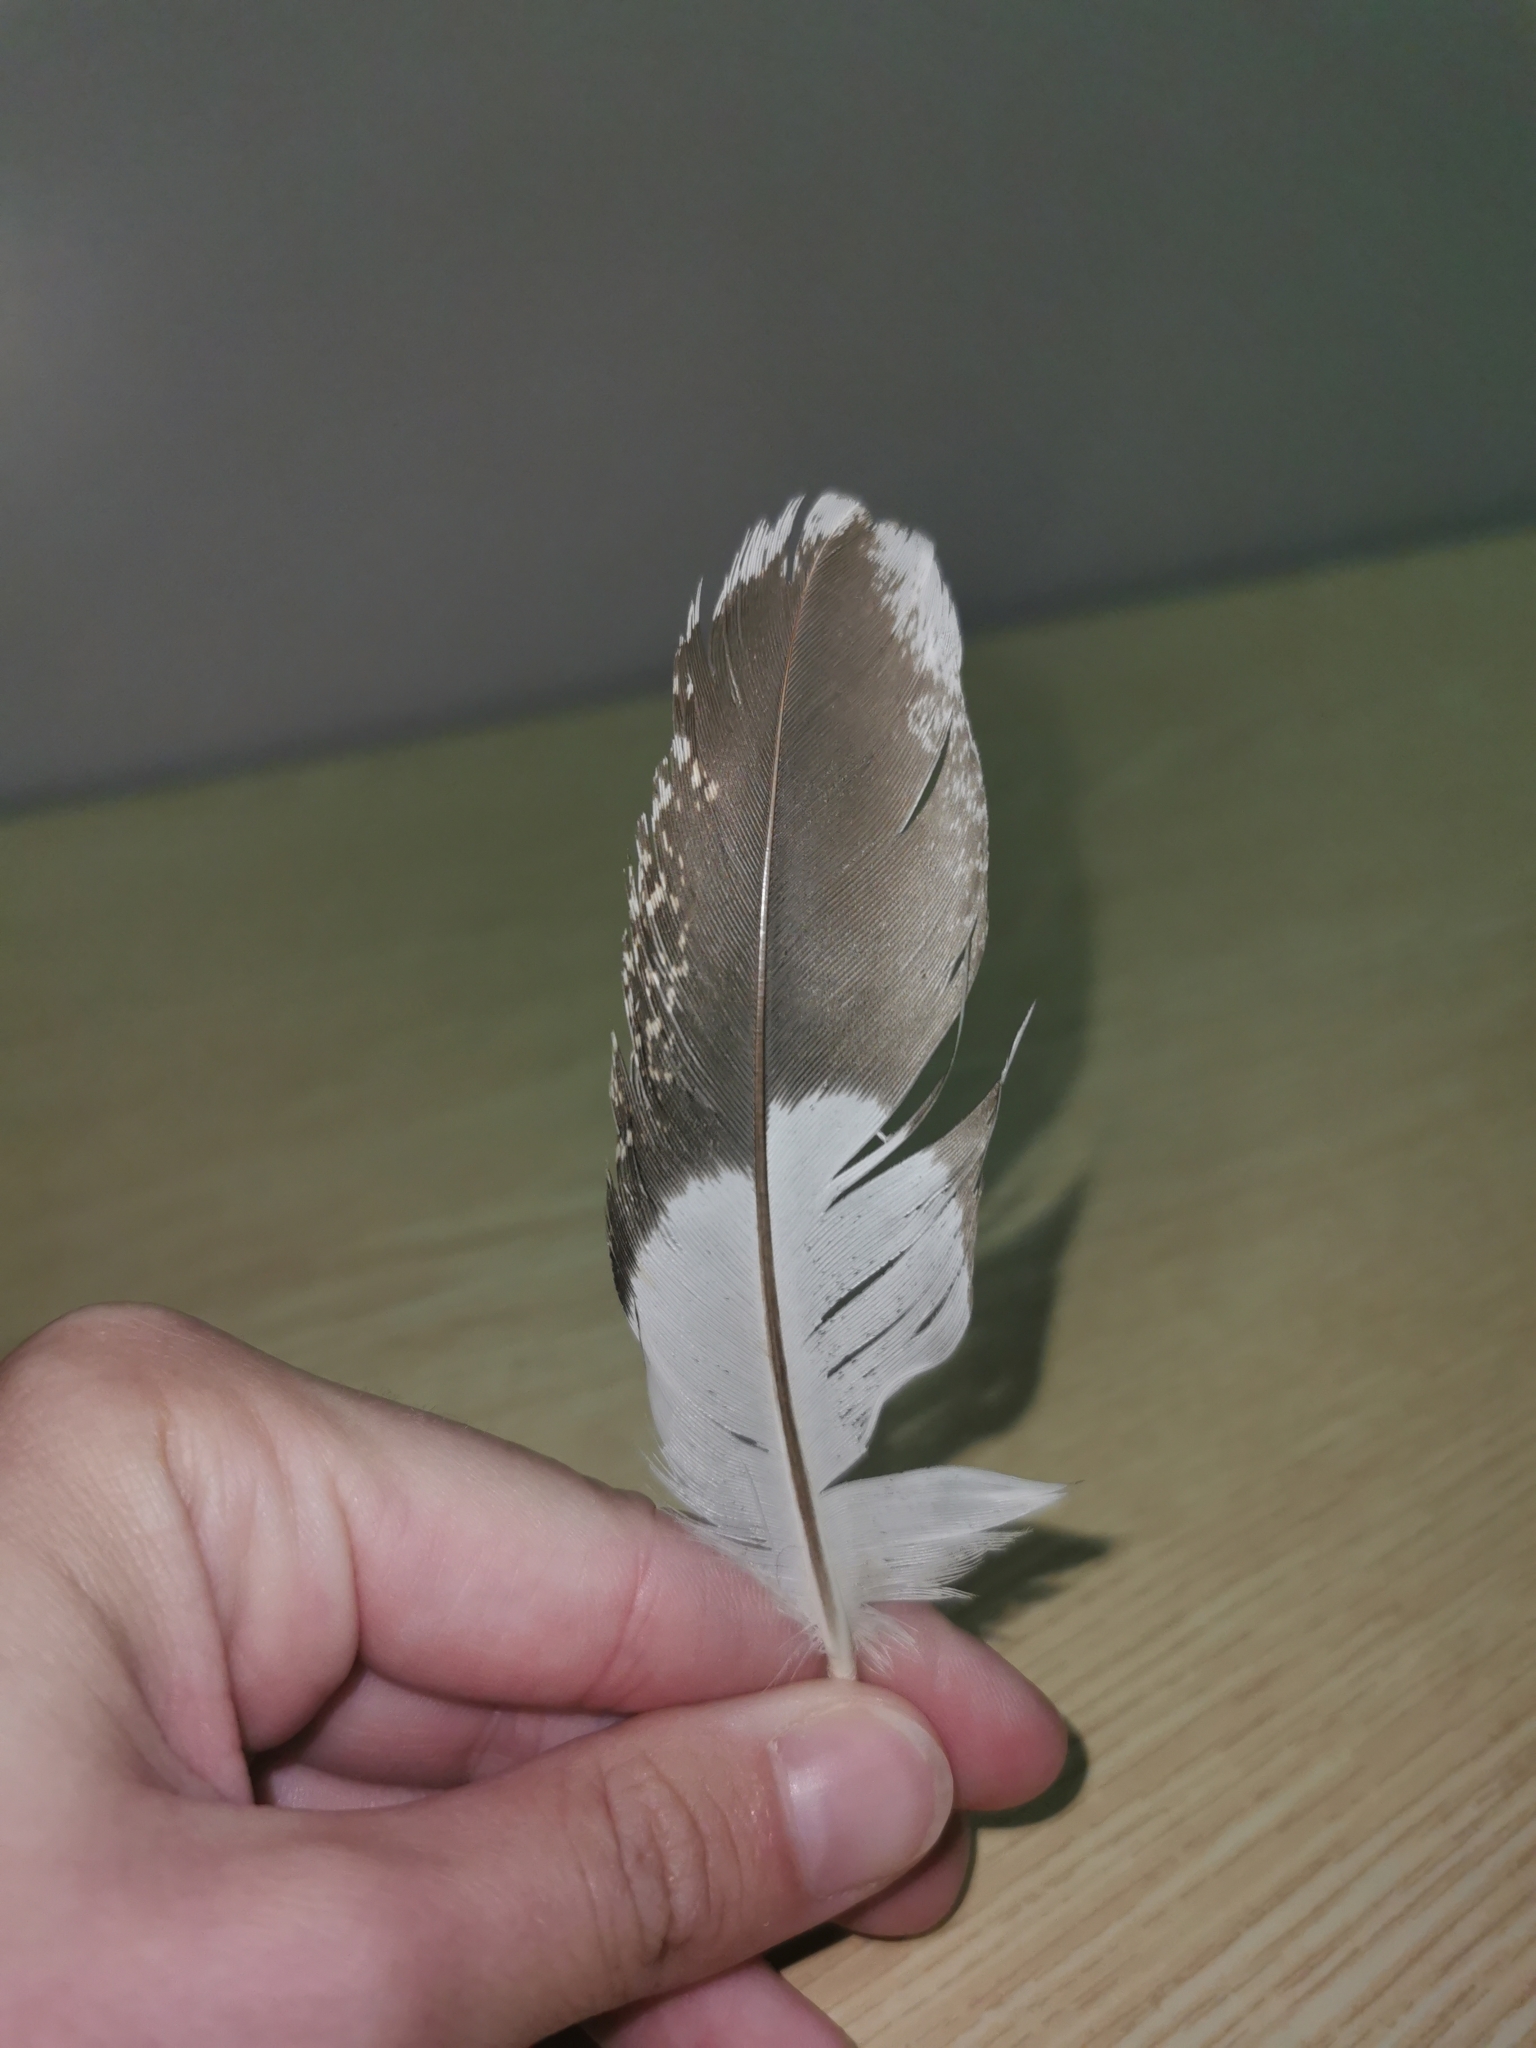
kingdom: Animalia
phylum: Chordata
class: Aves
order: Galliformes
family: Phasianidae
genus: Lyrurus
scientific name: Lyrurus tetrix
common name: Black grouse
